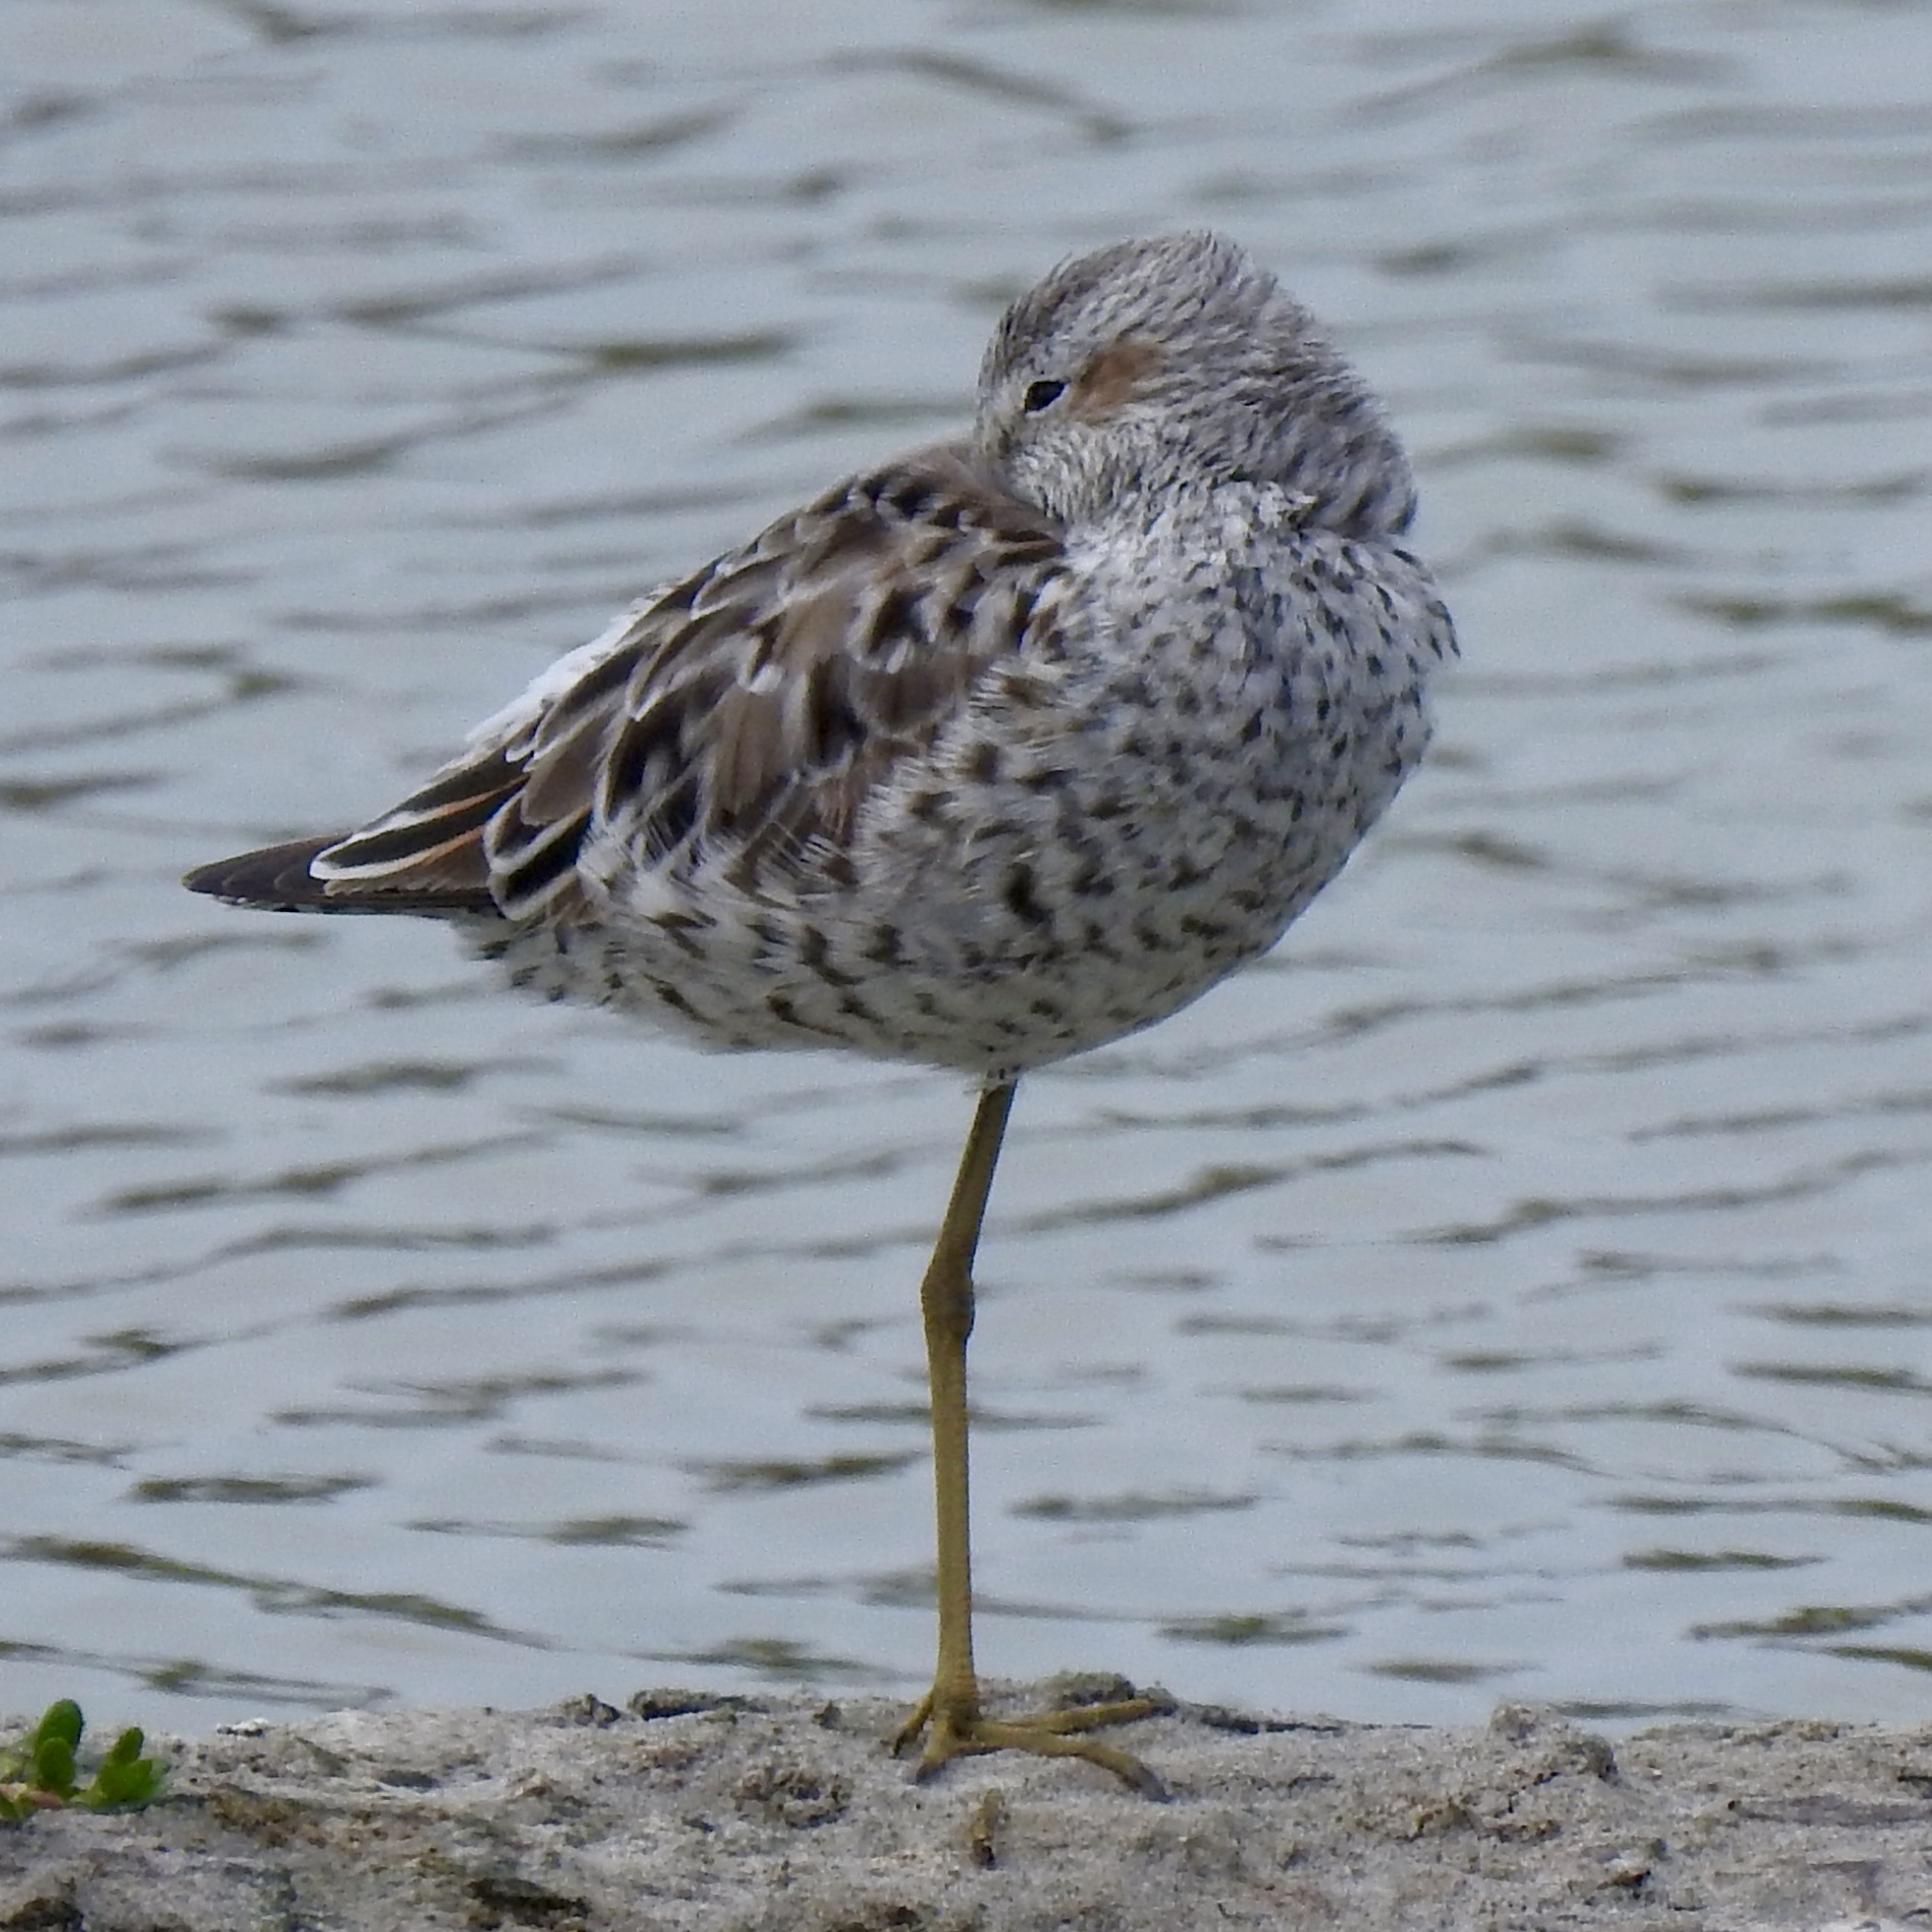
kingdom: Animalia
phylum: Chordata
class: Aves
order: Charadriiformes
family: Scolopacidae
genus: Calidris
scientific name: Calidris himantopus
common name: Stilt sandpiper
